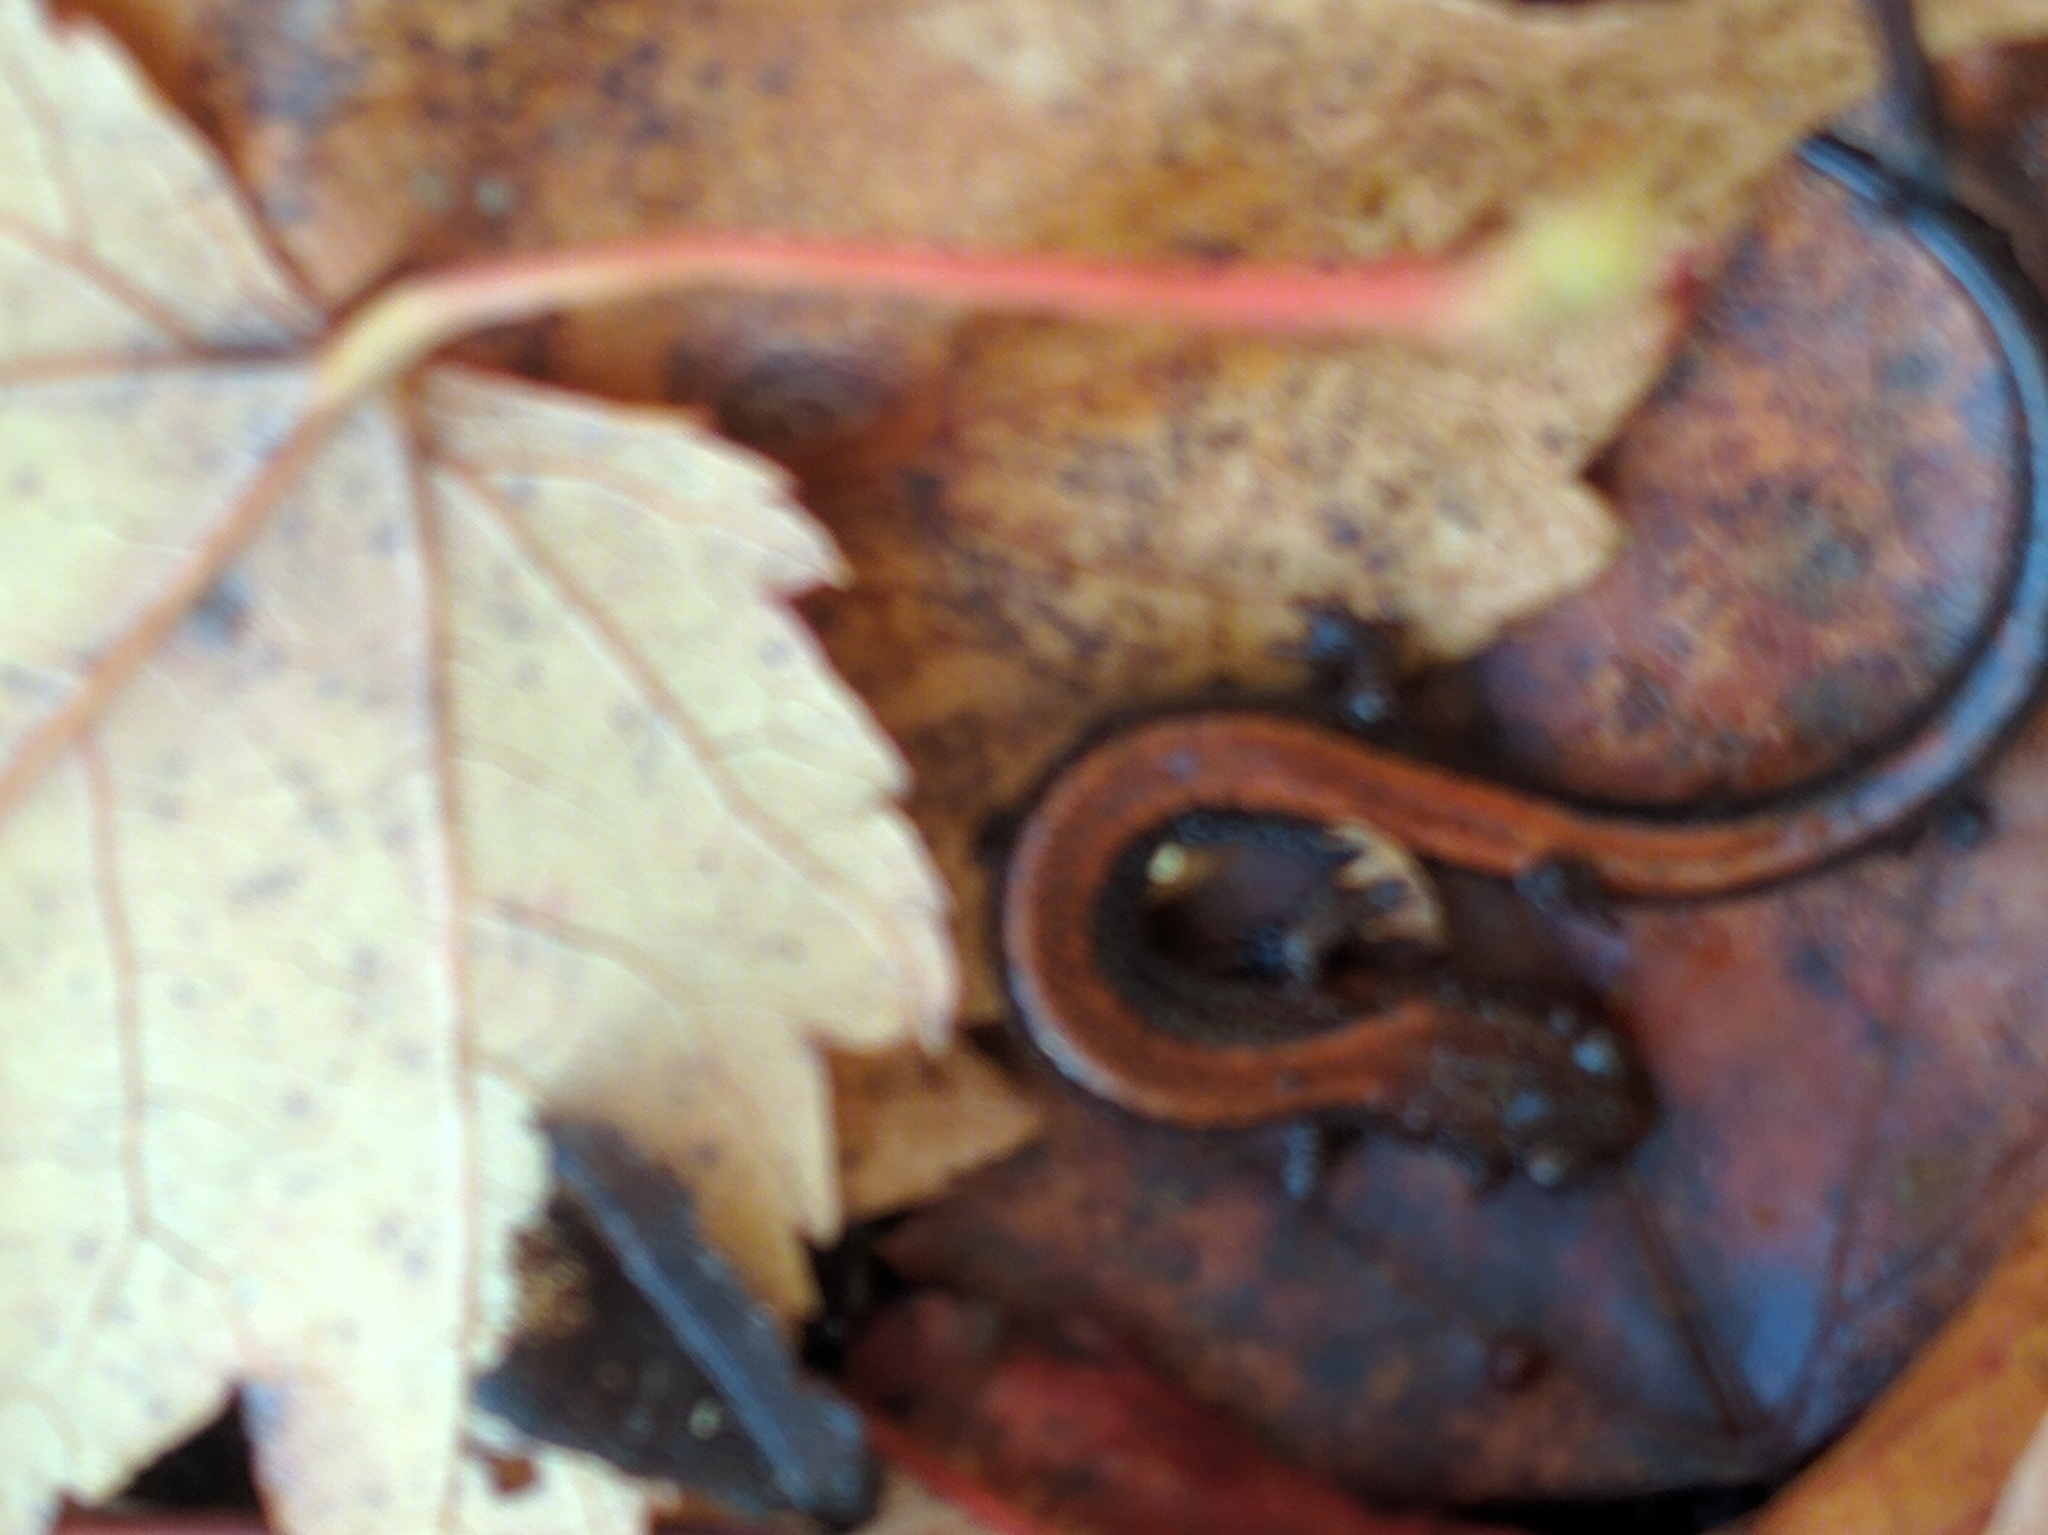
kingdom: Animalia
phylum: Chordata
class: Amphibia
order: Caudata
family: Plethodontidae
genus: Plethodon
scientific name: Plethodon cinereus
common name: Redback salamander
